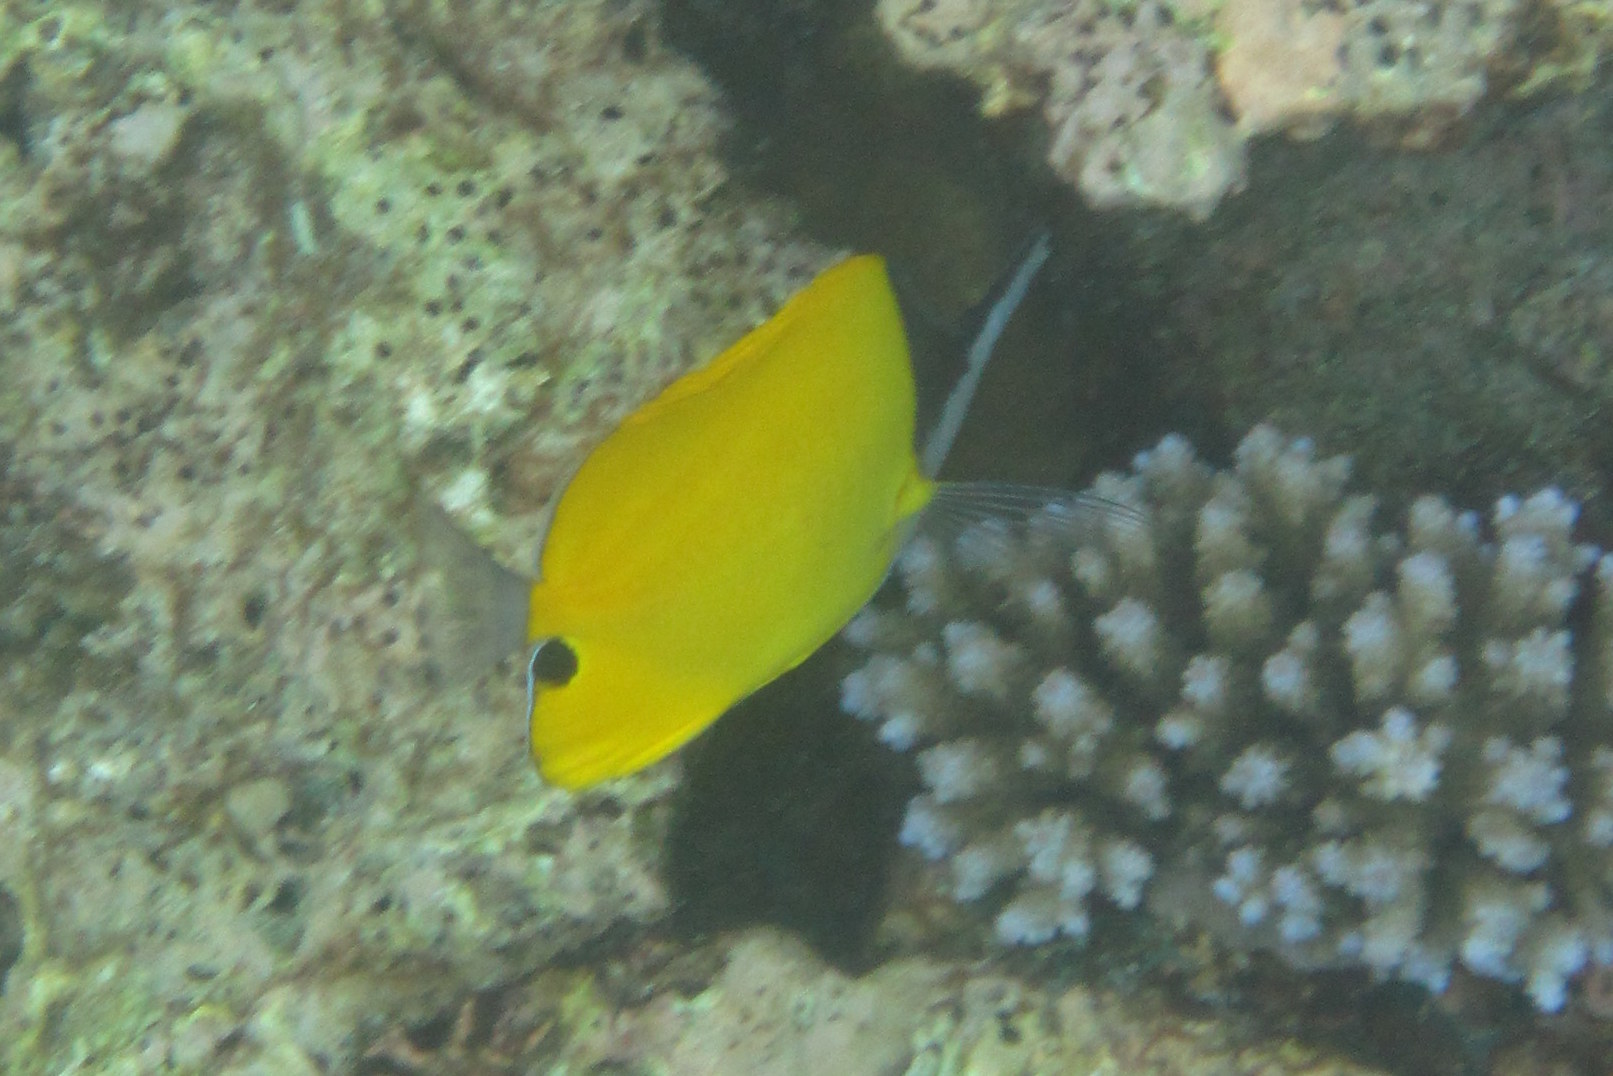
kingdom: Animalia
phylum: Chordata
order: Perciformes
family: Chaetodontidae
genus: Forcipiger
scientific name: Forcipiger flavissimus
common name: Forcepsfish
